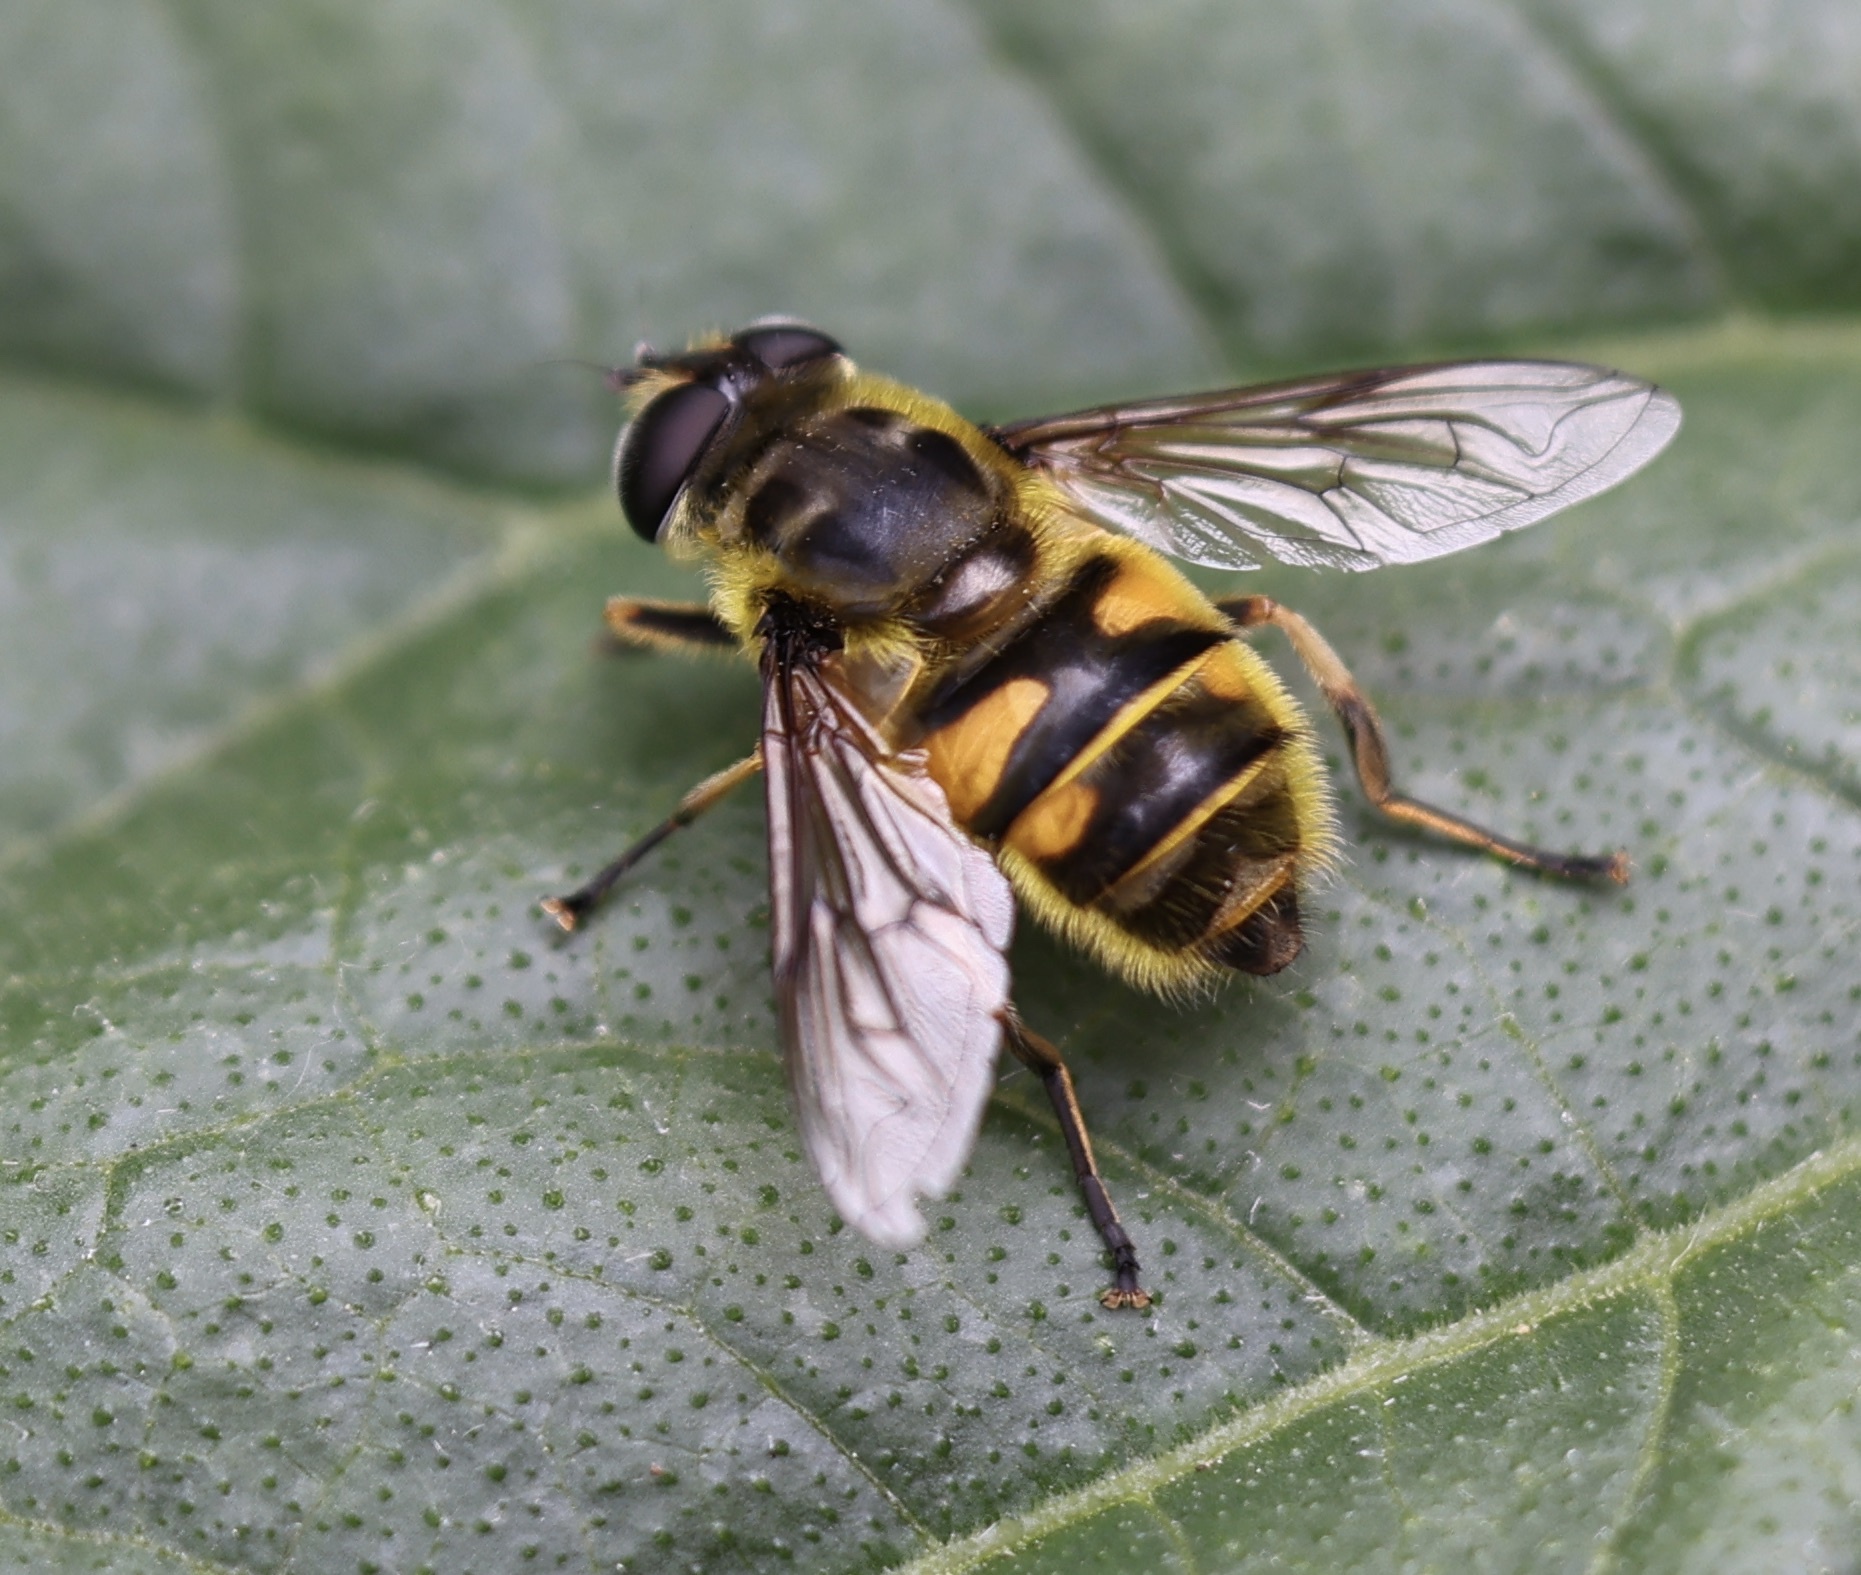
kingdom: Animalia
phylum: Arthropoda
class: Insecta
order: Diptera
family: Syrphidae
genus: Myathropa
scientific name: Myathropa florea
